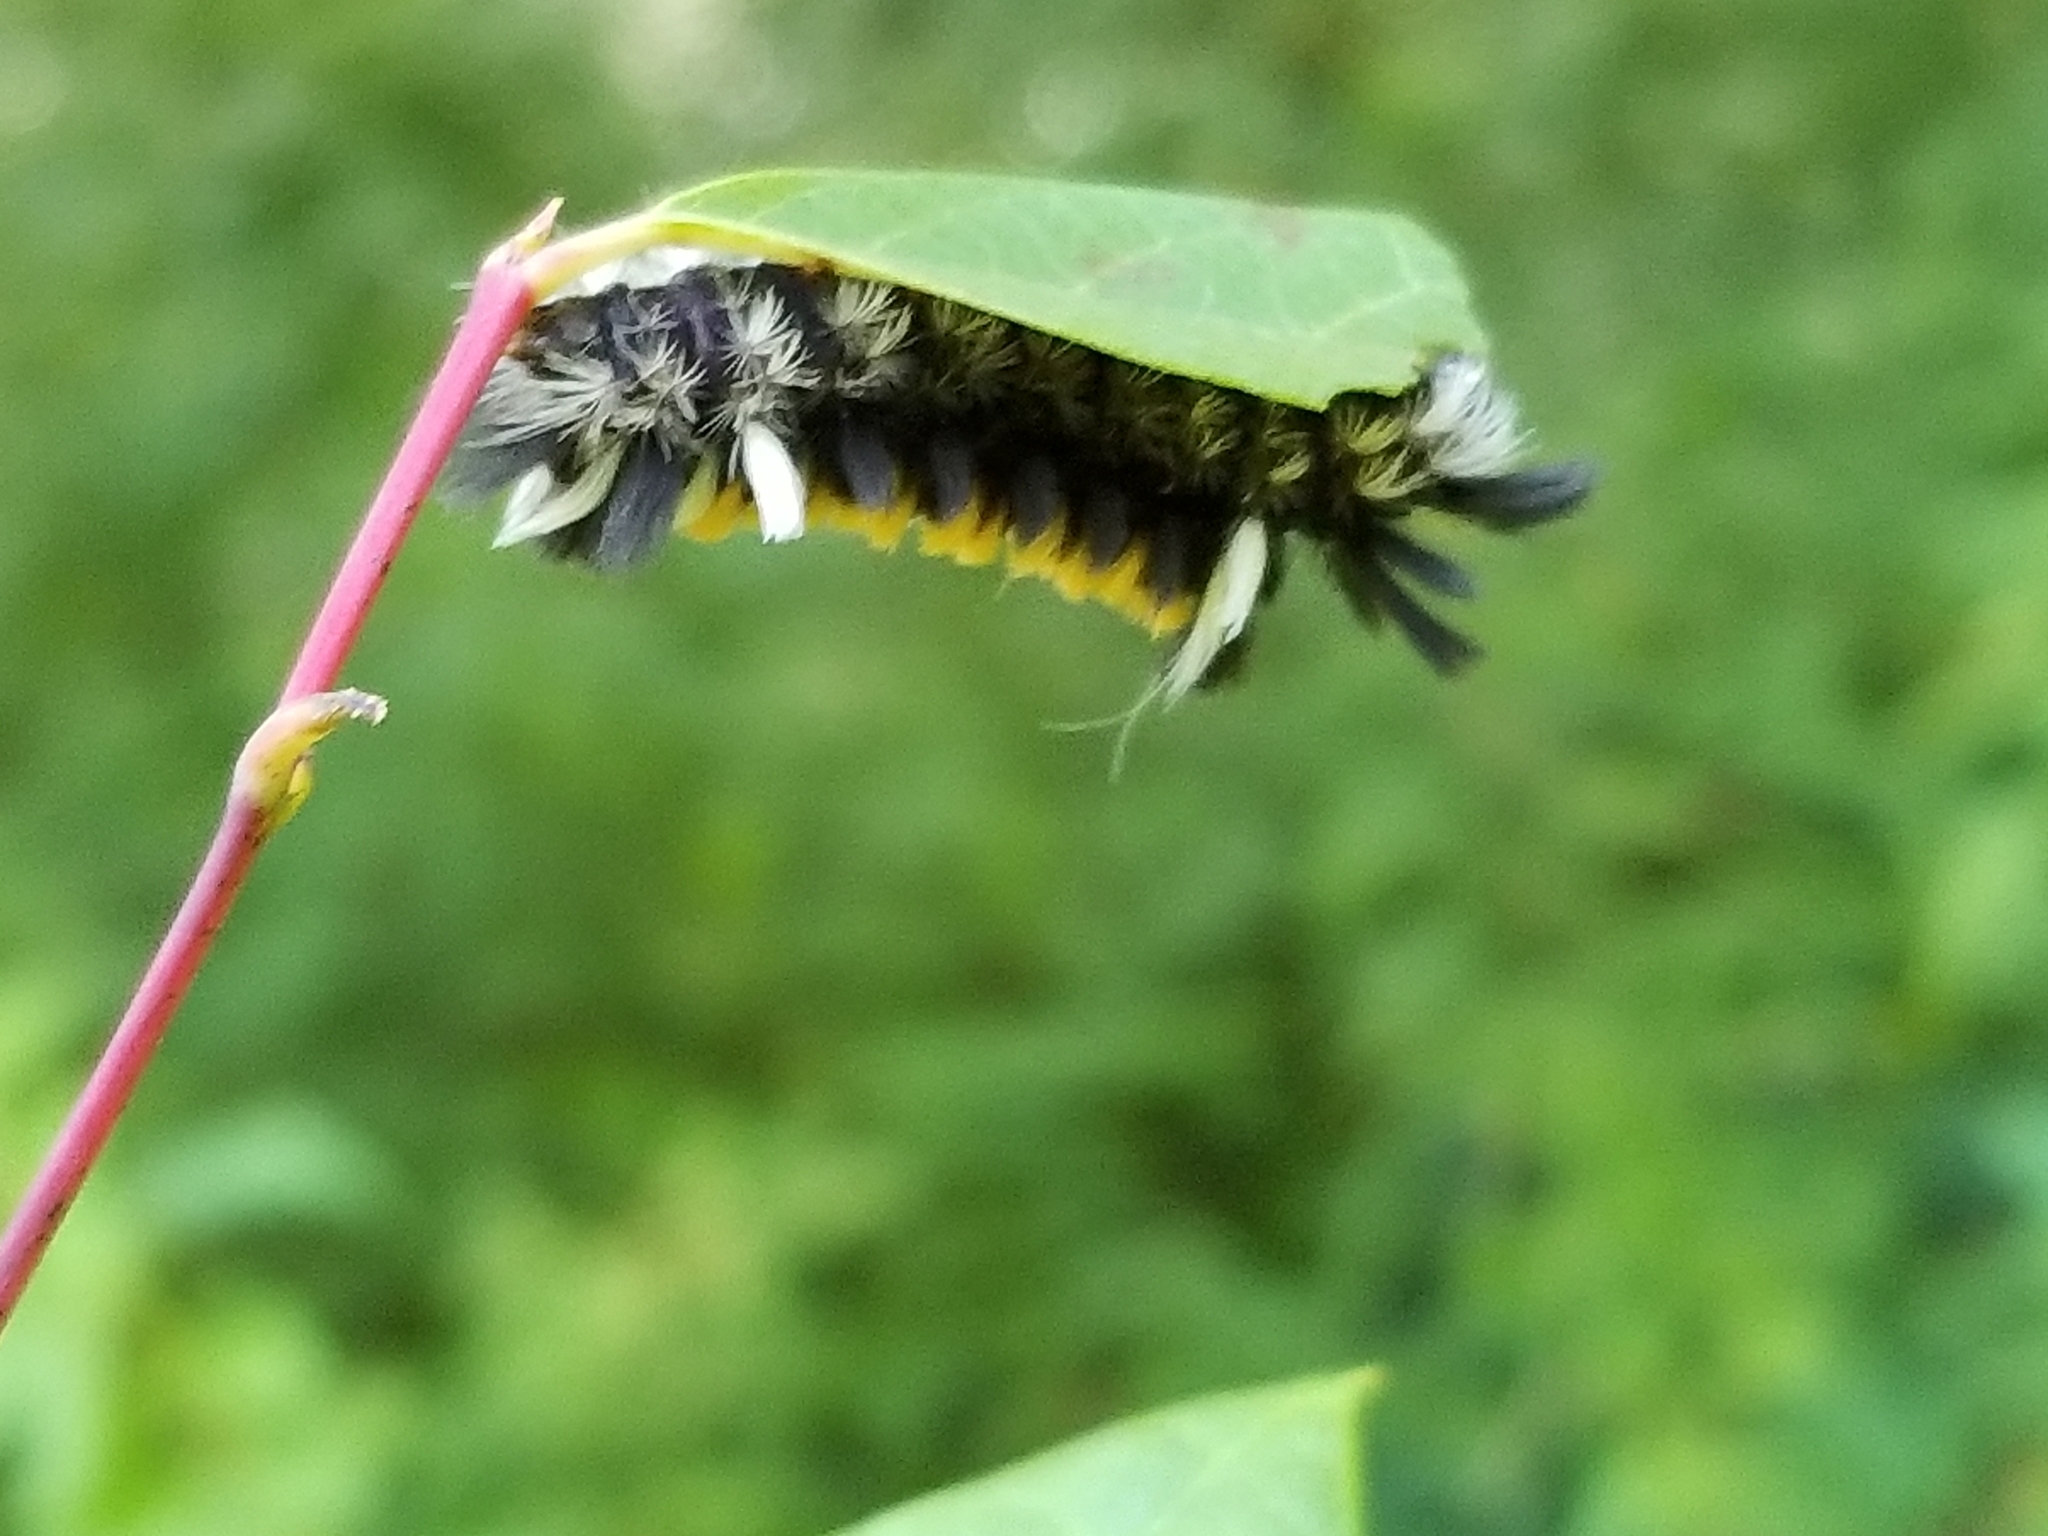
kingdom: Animalia
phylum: Arthropoda
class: Insecta
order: Lepidoptera
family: Erebidae
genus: Euchaetes
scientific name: Euchaetes egle
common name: Milkweed tussock moth
